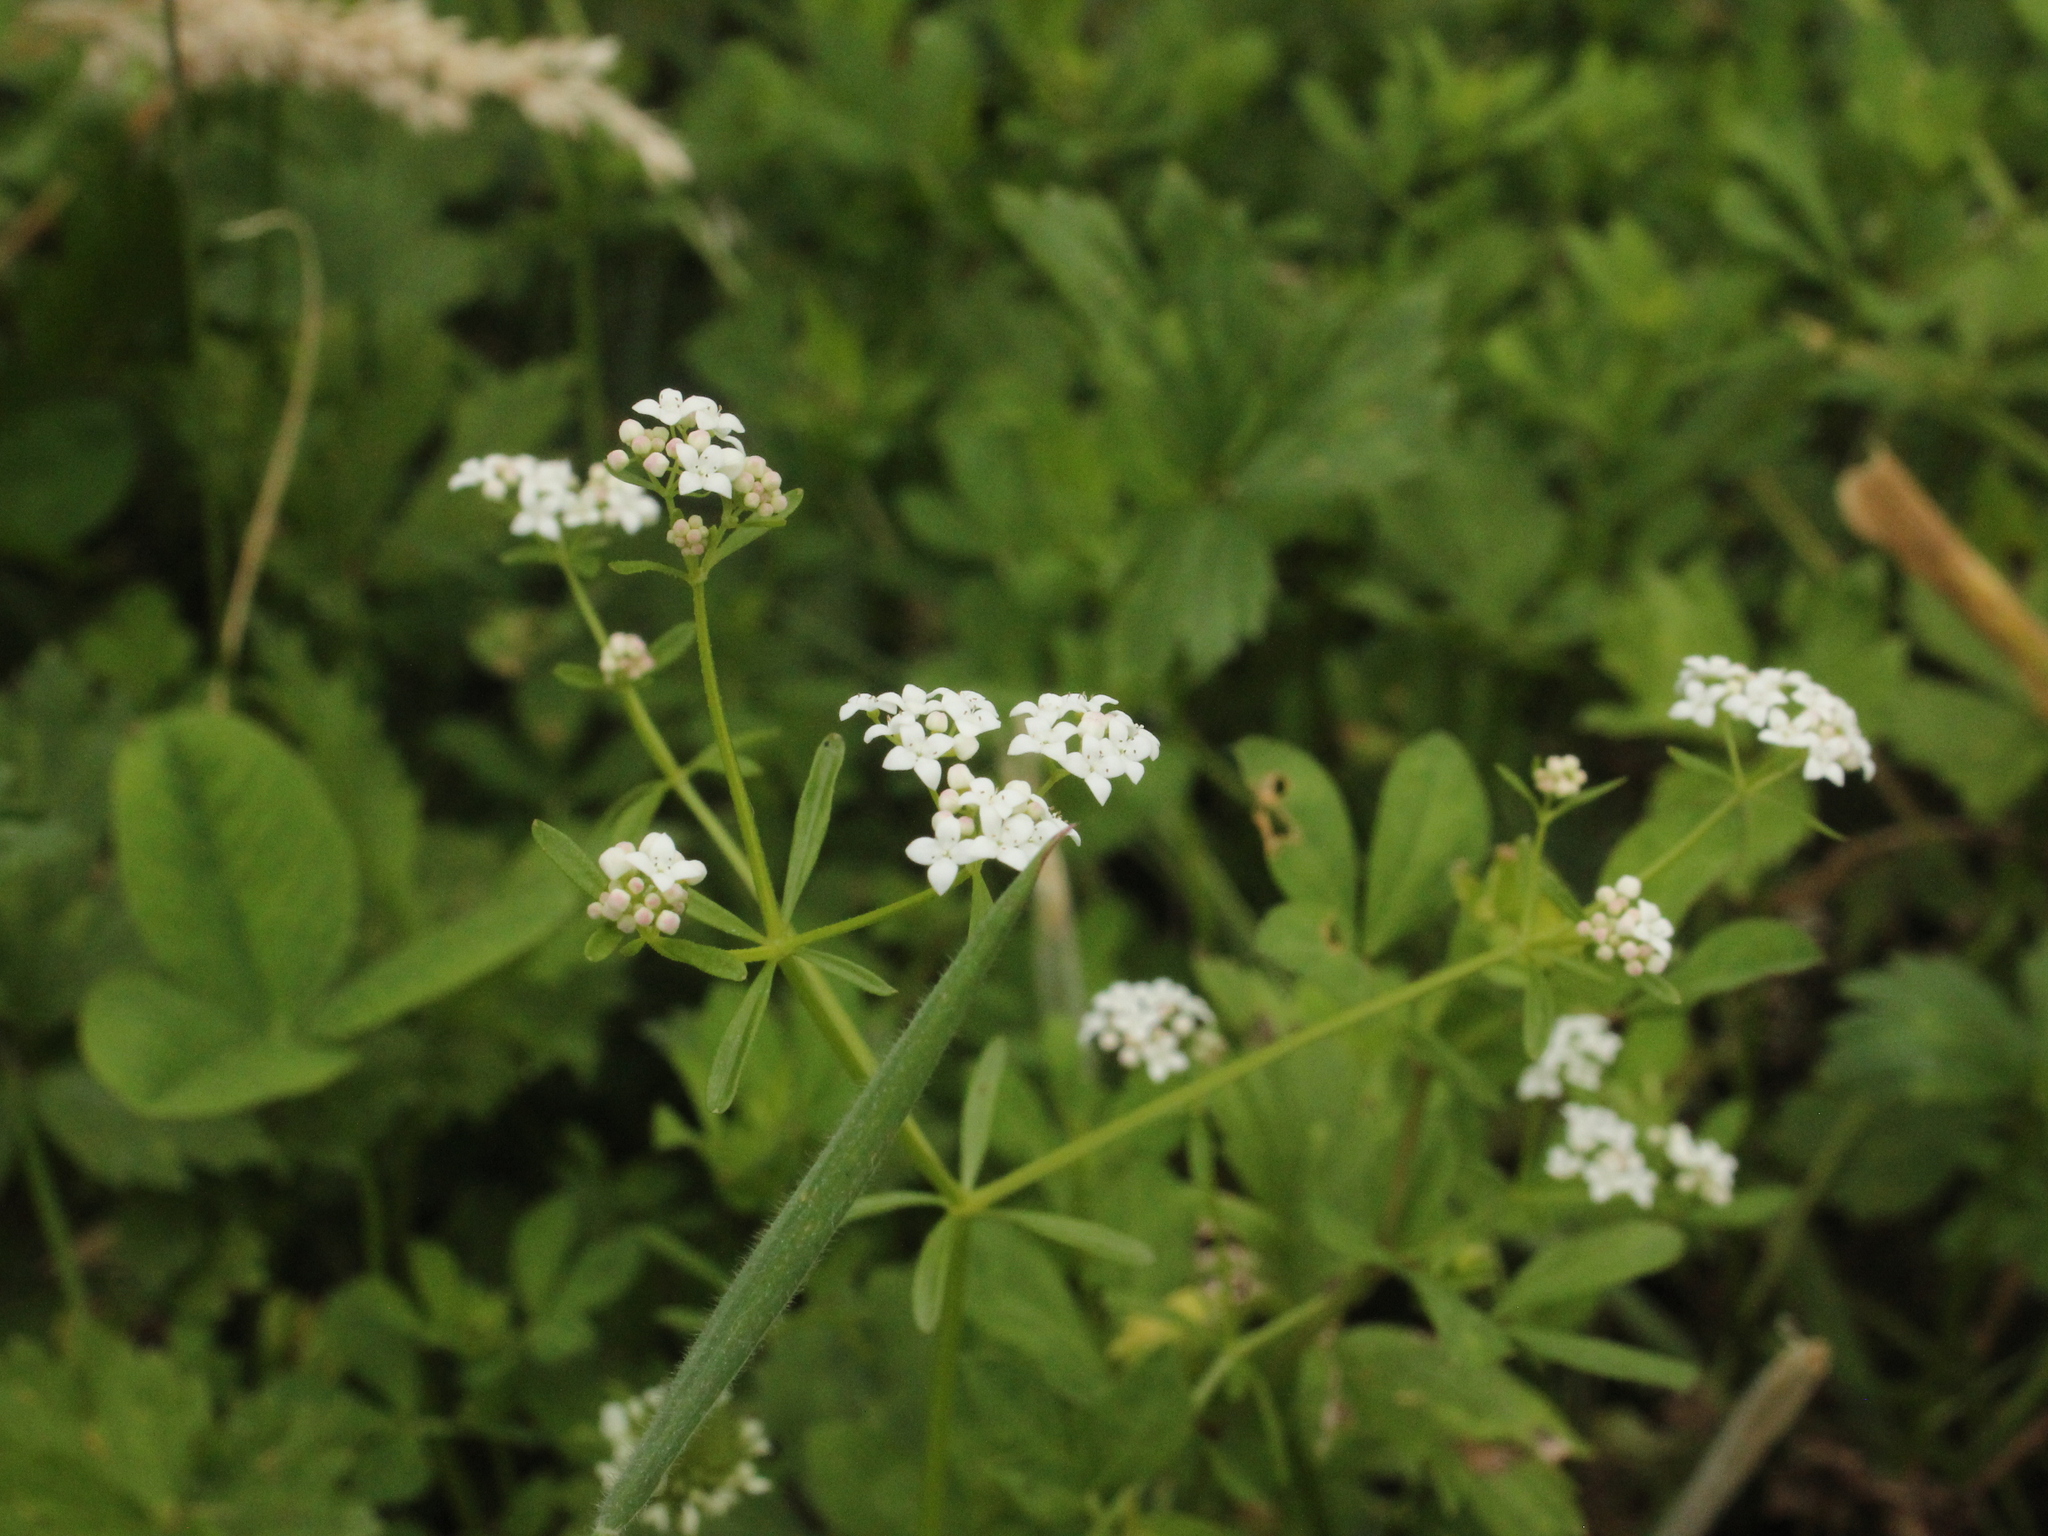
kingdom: Plantae
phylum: Tracheophyta
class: Magnoliopsida
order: Gentianales
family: Rubiaceae
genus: Galium
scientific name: Galium palustre
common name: Common marsh-bedstraw
